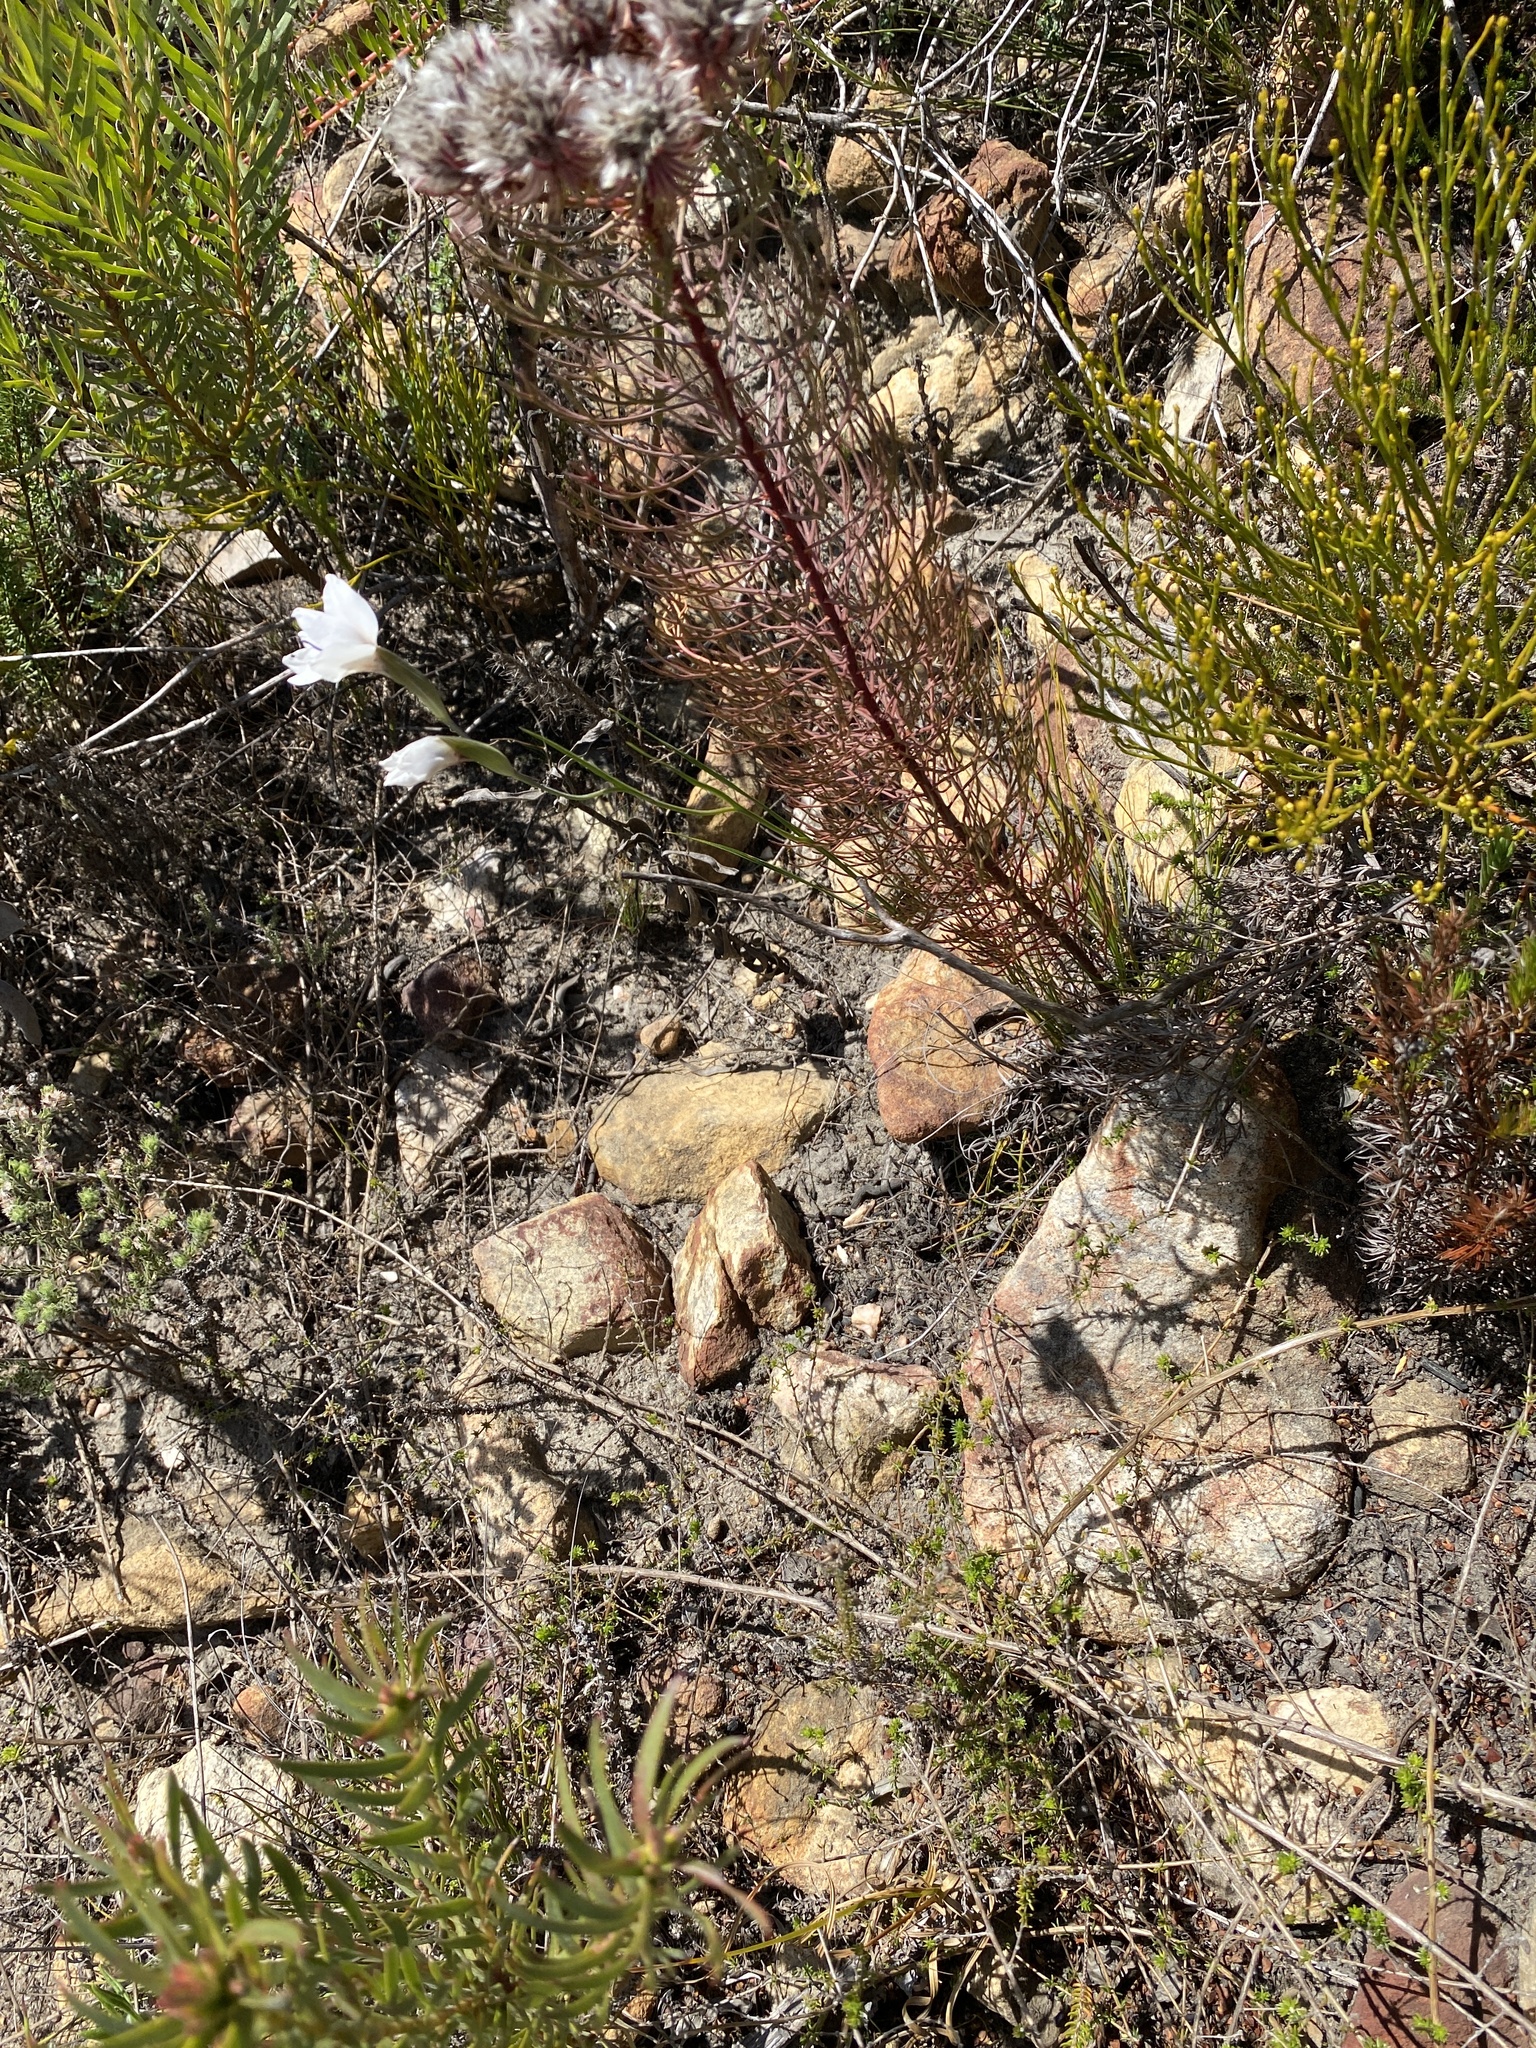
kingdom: Plantae
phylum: Tracheophyta
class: Liliopsida
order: Asparagales
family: Iridaceae
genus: Gladiolus
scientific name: Gladiolus debilis
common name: Painted-lady
